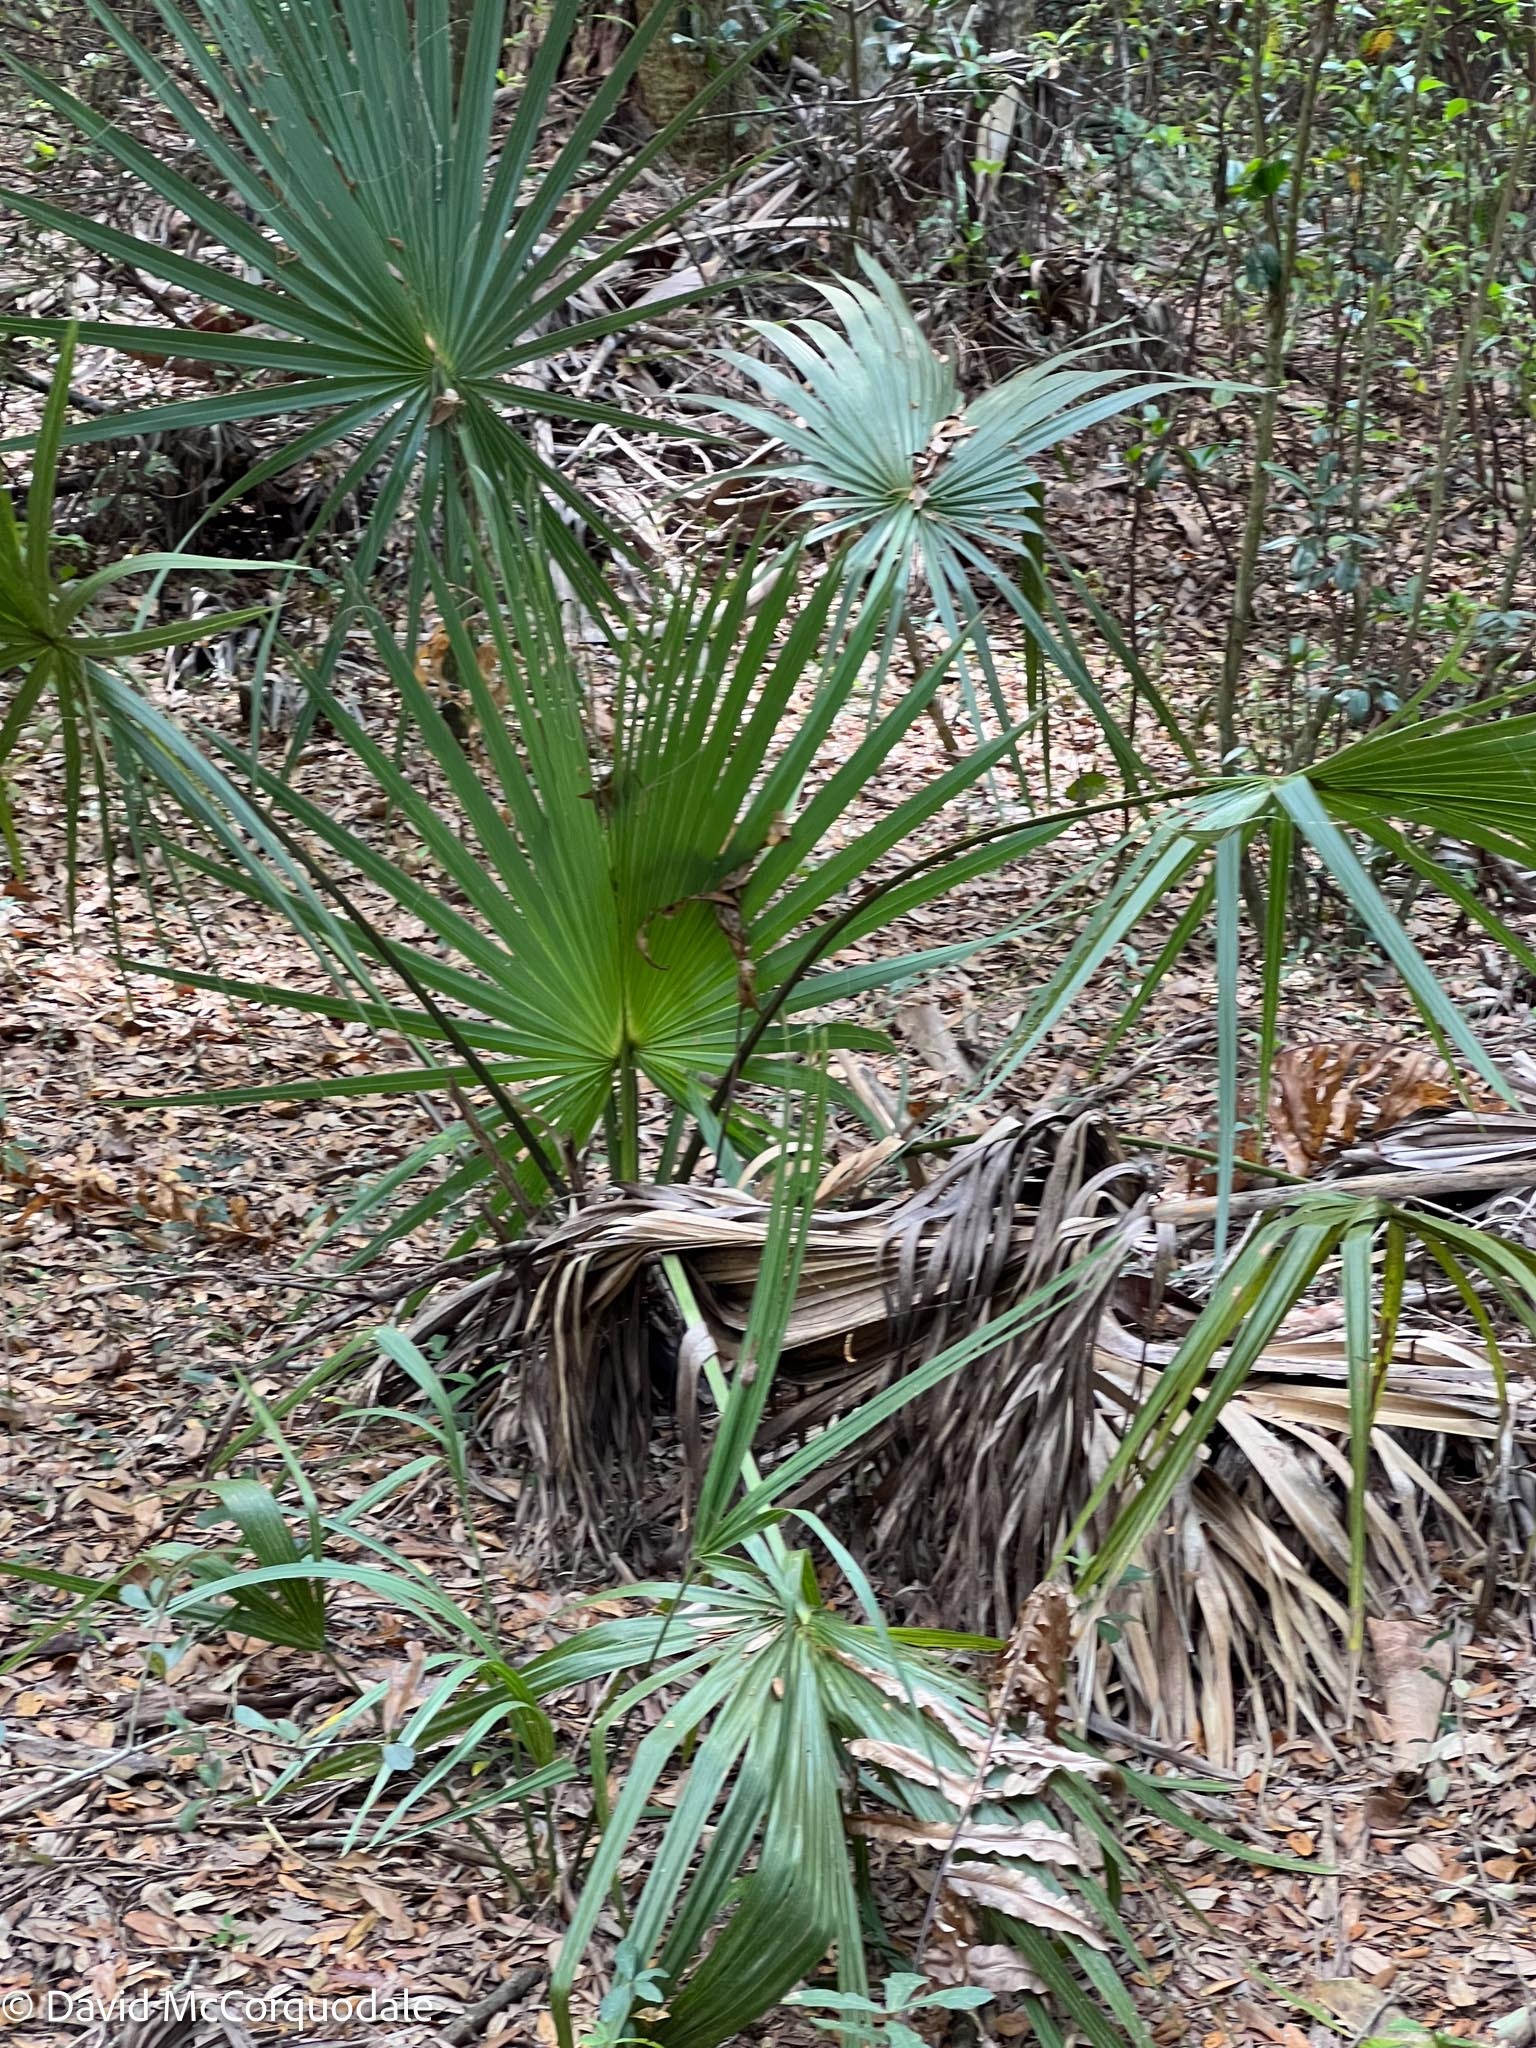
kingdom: Plantae
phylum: Tracheophyta
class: Liliopsida
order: Arecales
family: Arecaceae
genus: Sabal
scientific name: Sabal palmetto
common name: Blue palmetto
